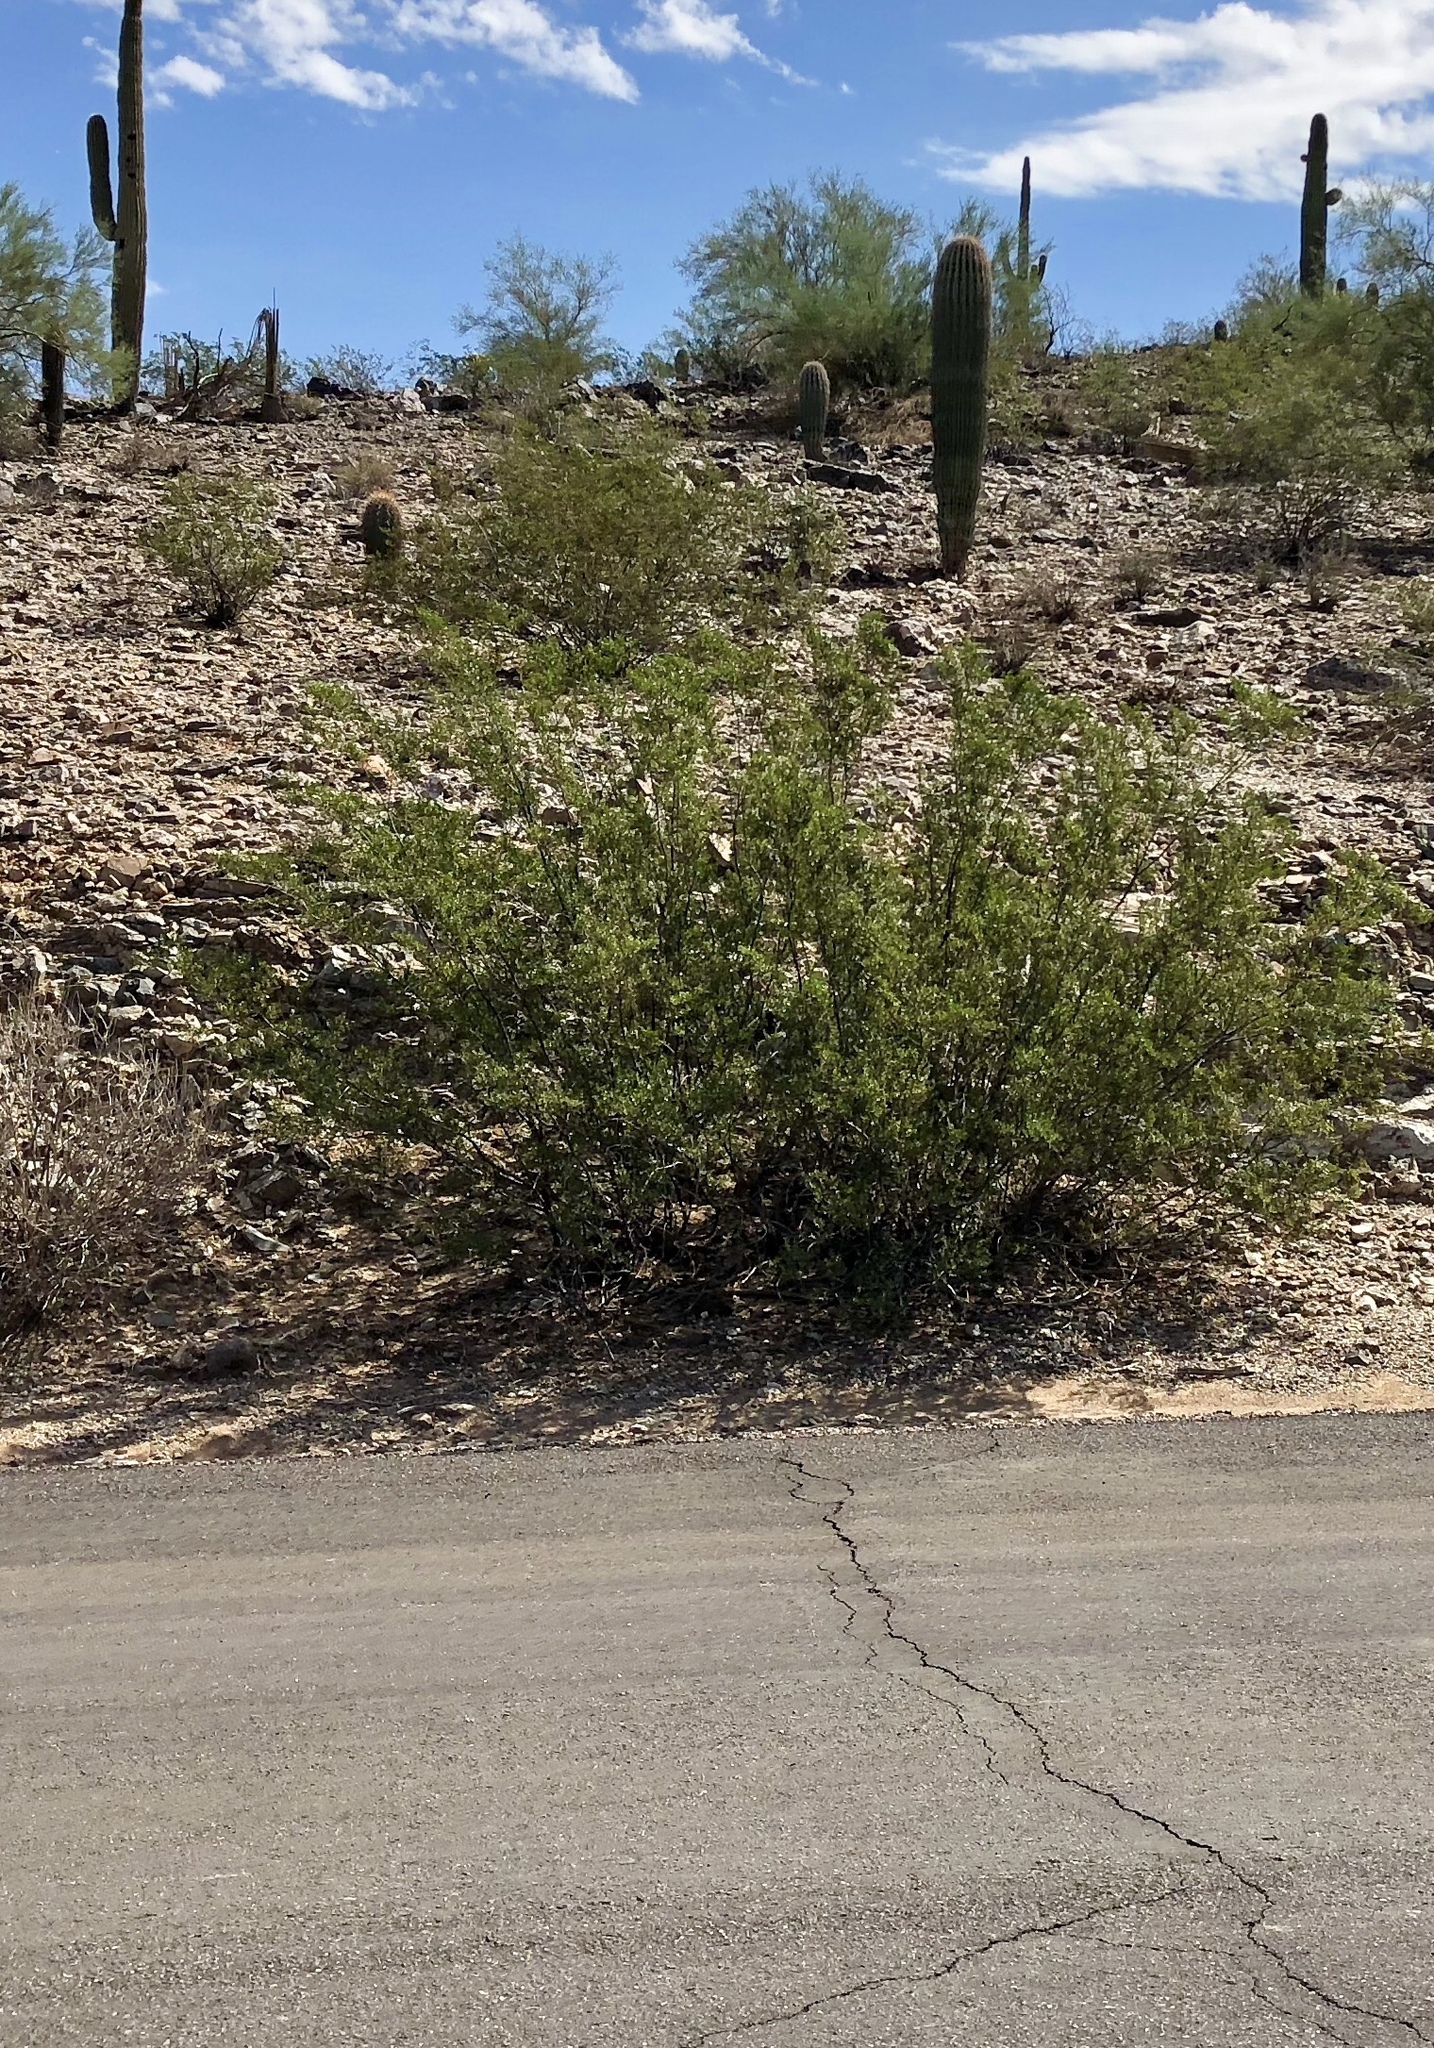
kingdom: Plantae
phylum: Tracheophyta
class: Magnoliopsida
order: Zygophyllales
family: Zygophyllaceae
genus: Larrea
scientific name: Larrea tridentata
